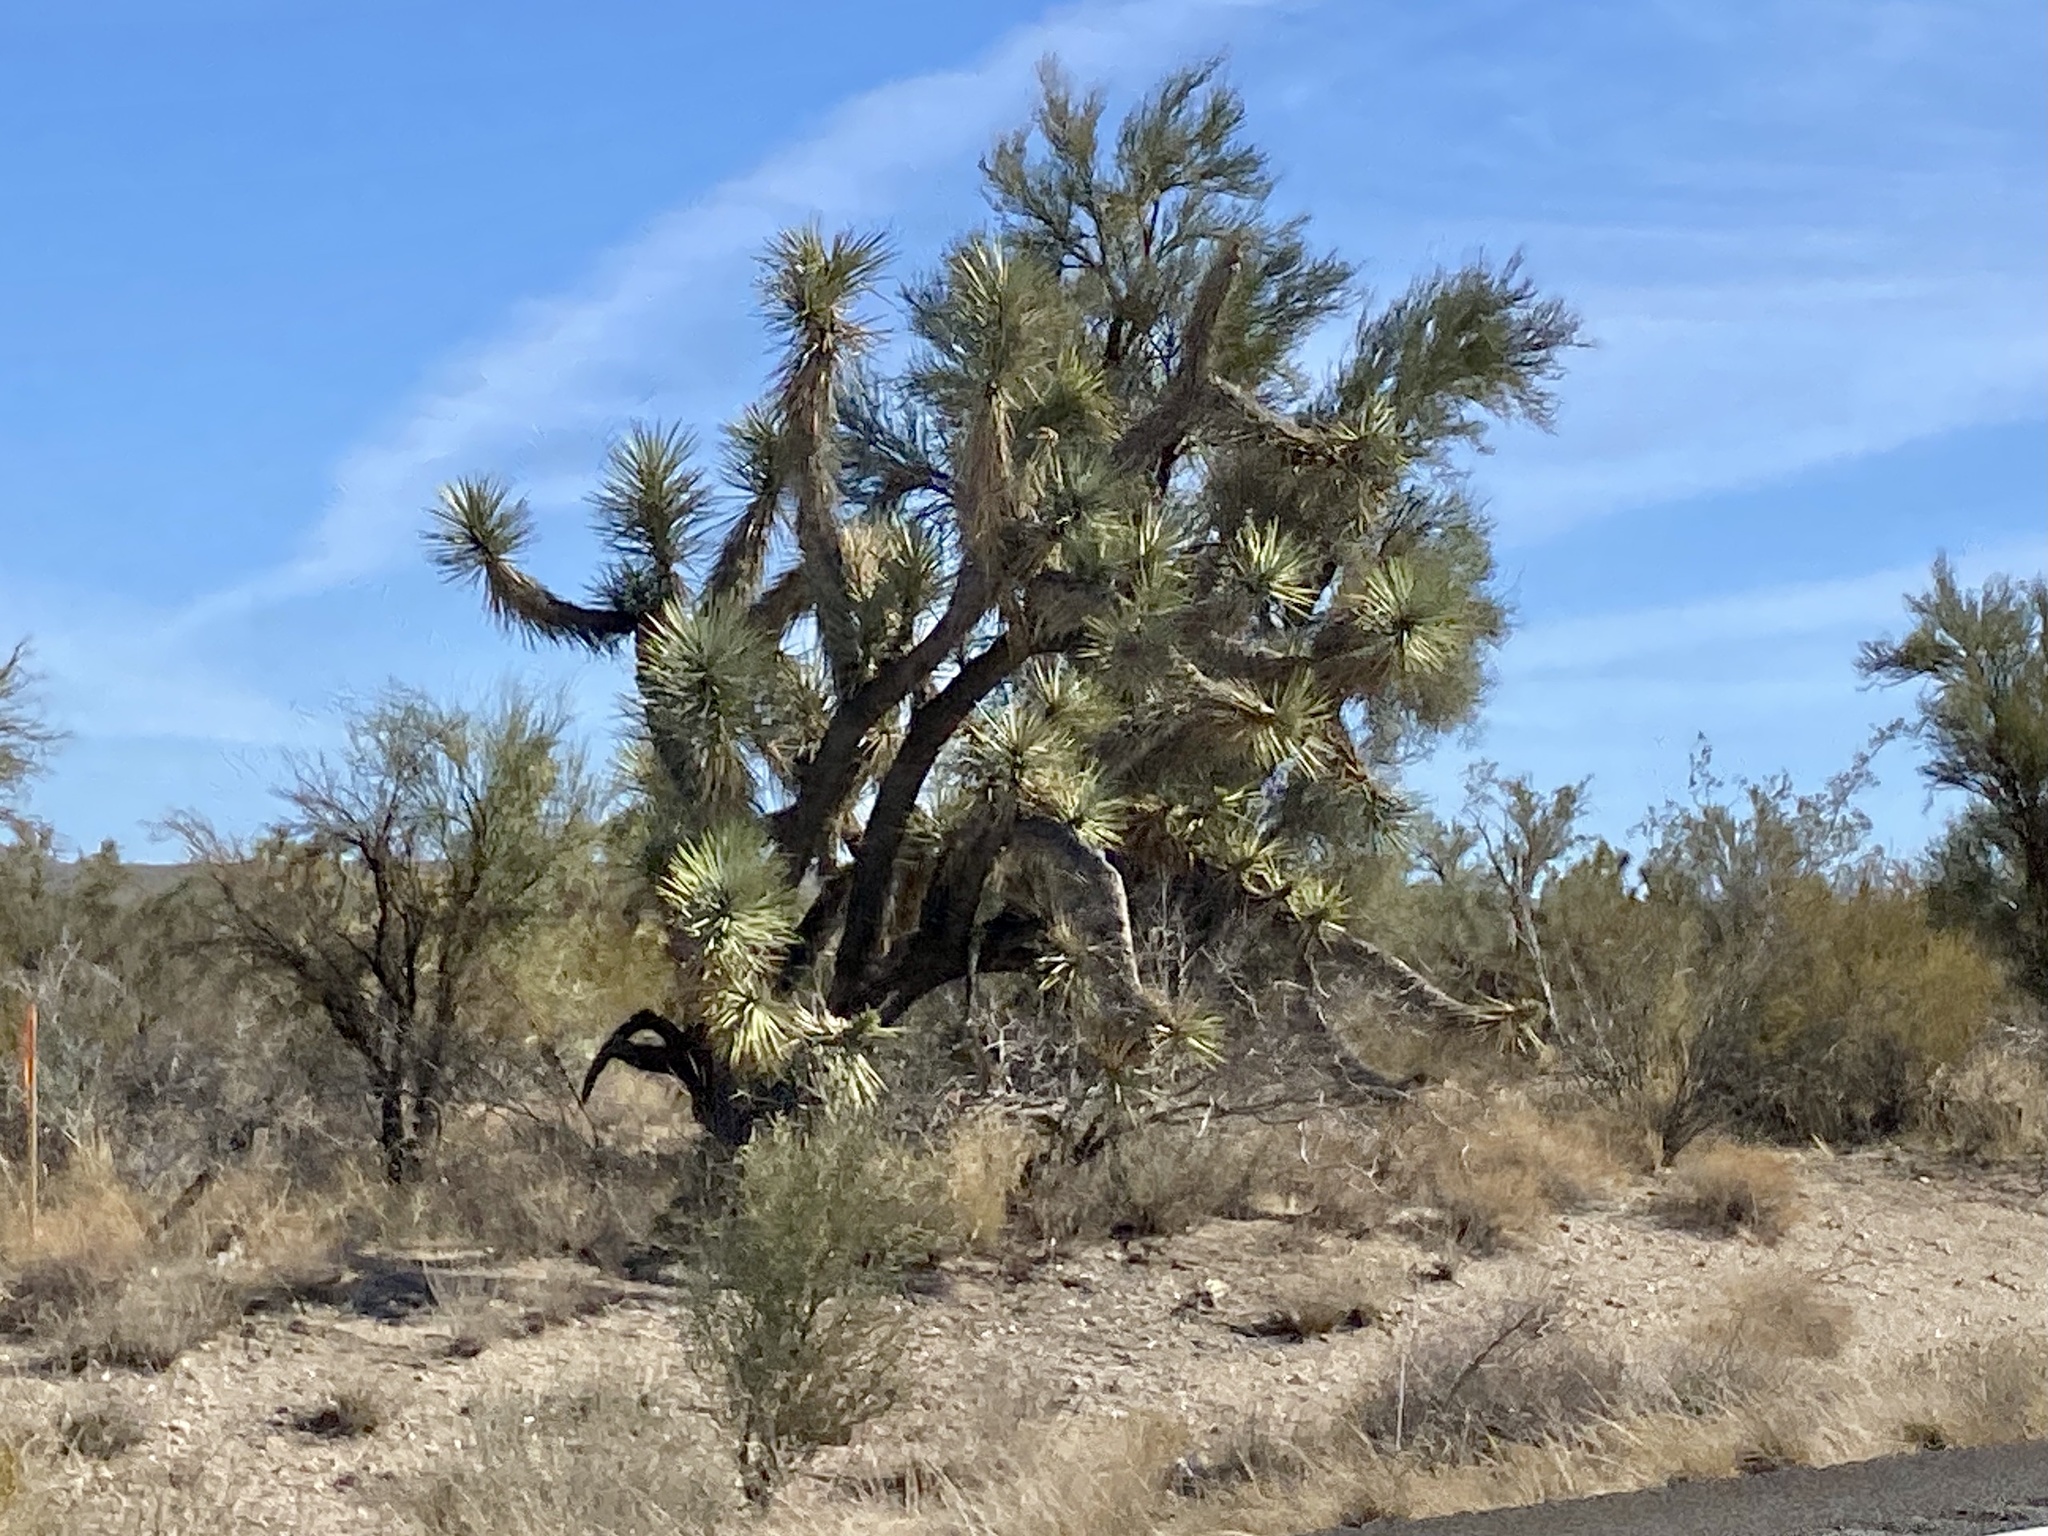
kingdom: Plantae
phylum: Tracheophyta
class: Liliopsida
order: Asparagales
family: Asparagaceae
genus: Yucca
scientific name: Yucca brevifolia
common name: Joshua tree
